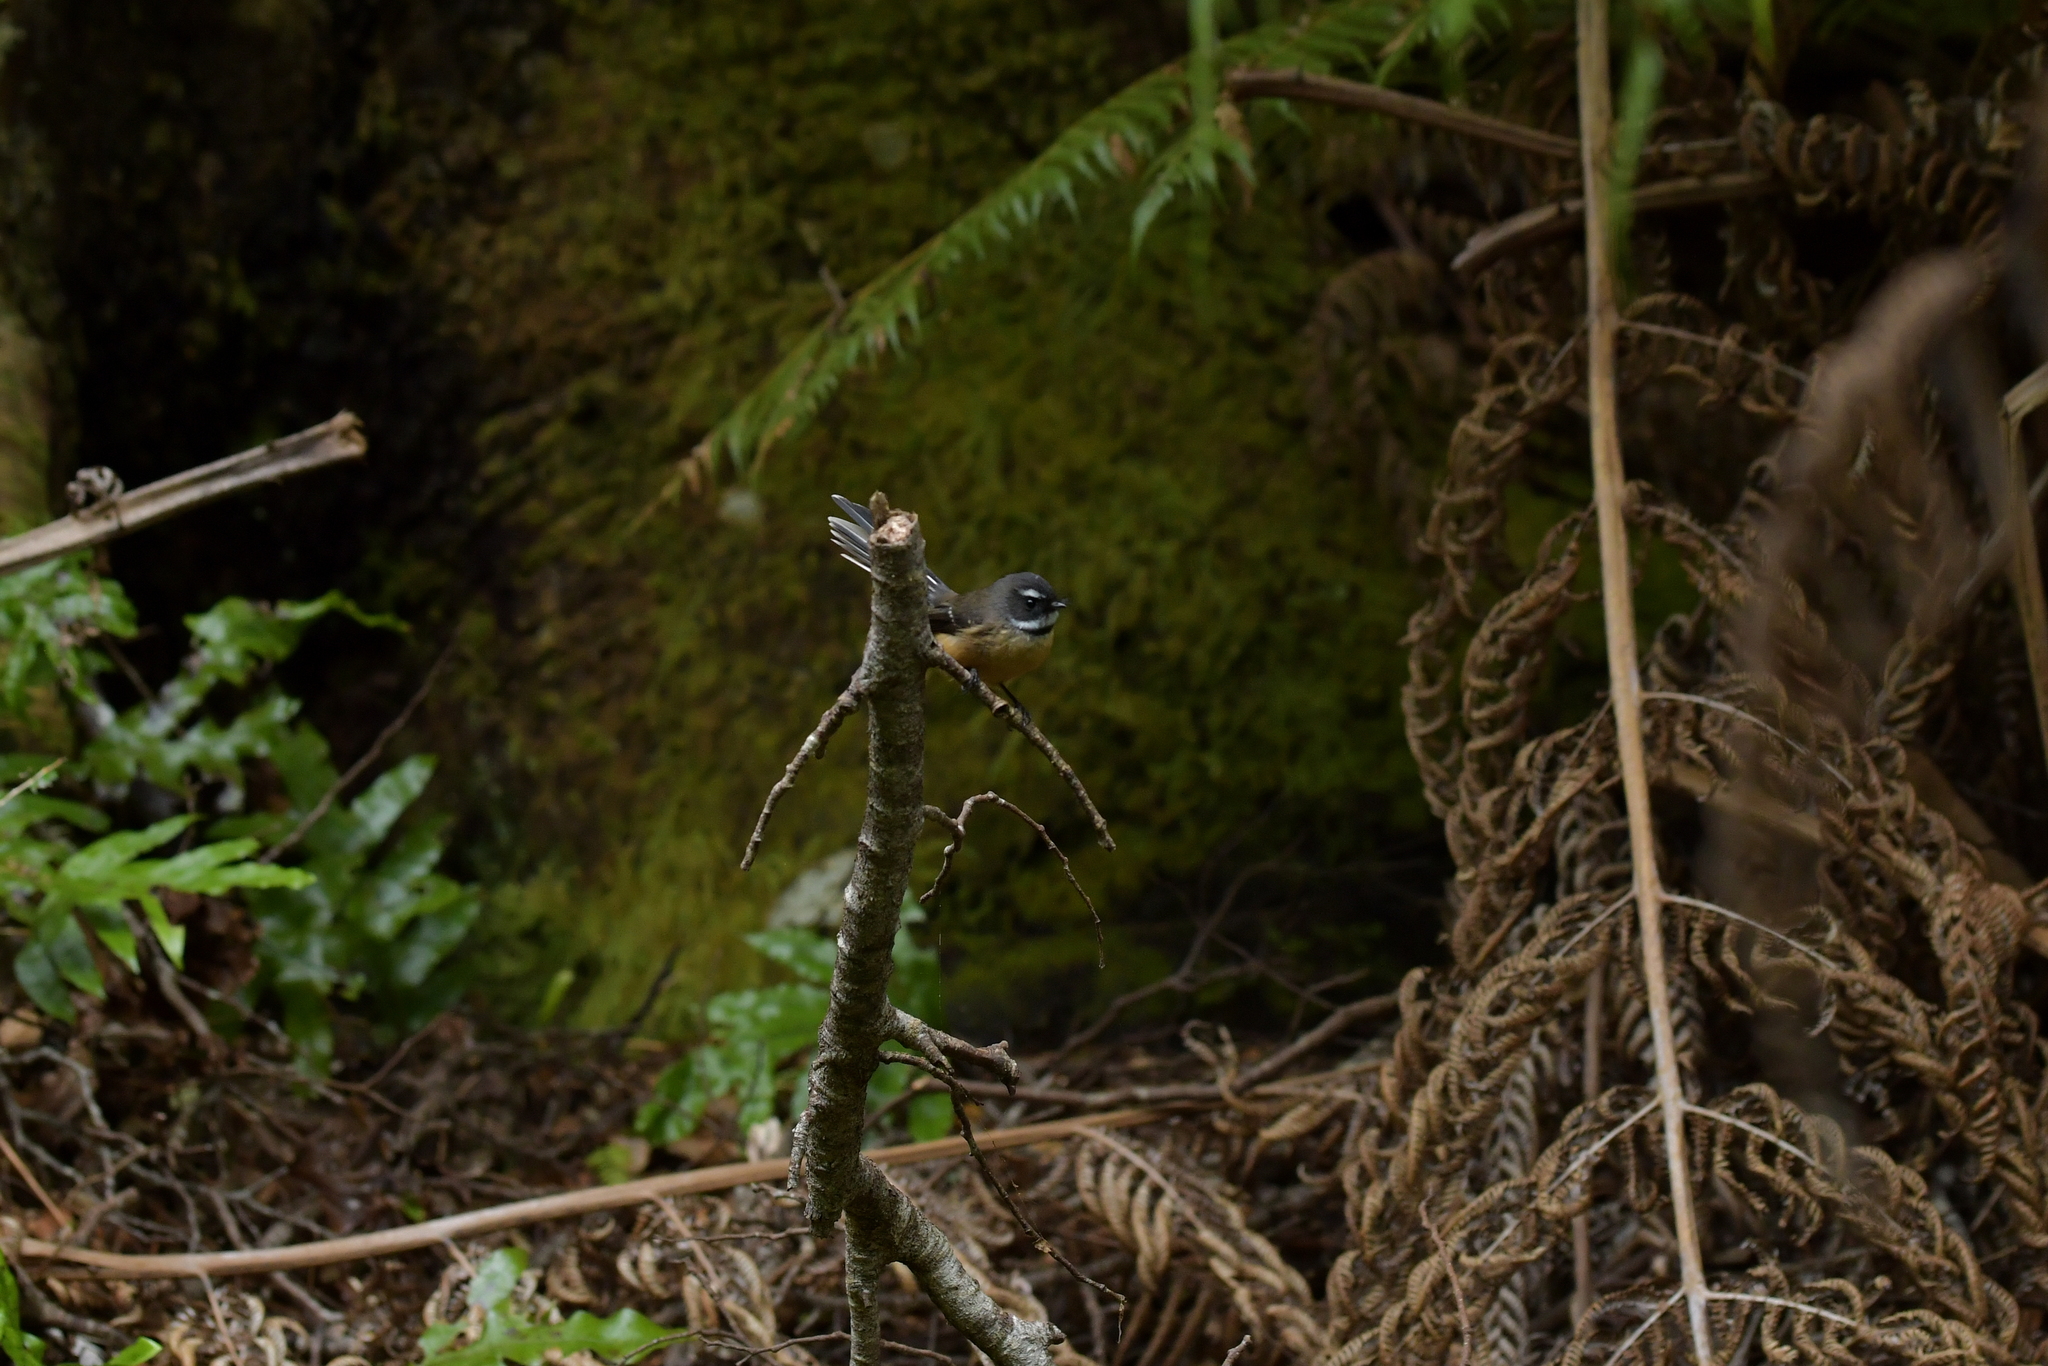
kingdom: Animalia
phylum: Chordata
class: Aves
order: Passeriformes
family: Rhipiduridae
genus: Rhipidura
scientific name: Rhipidura fuliginosa
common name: New zealand fantail
